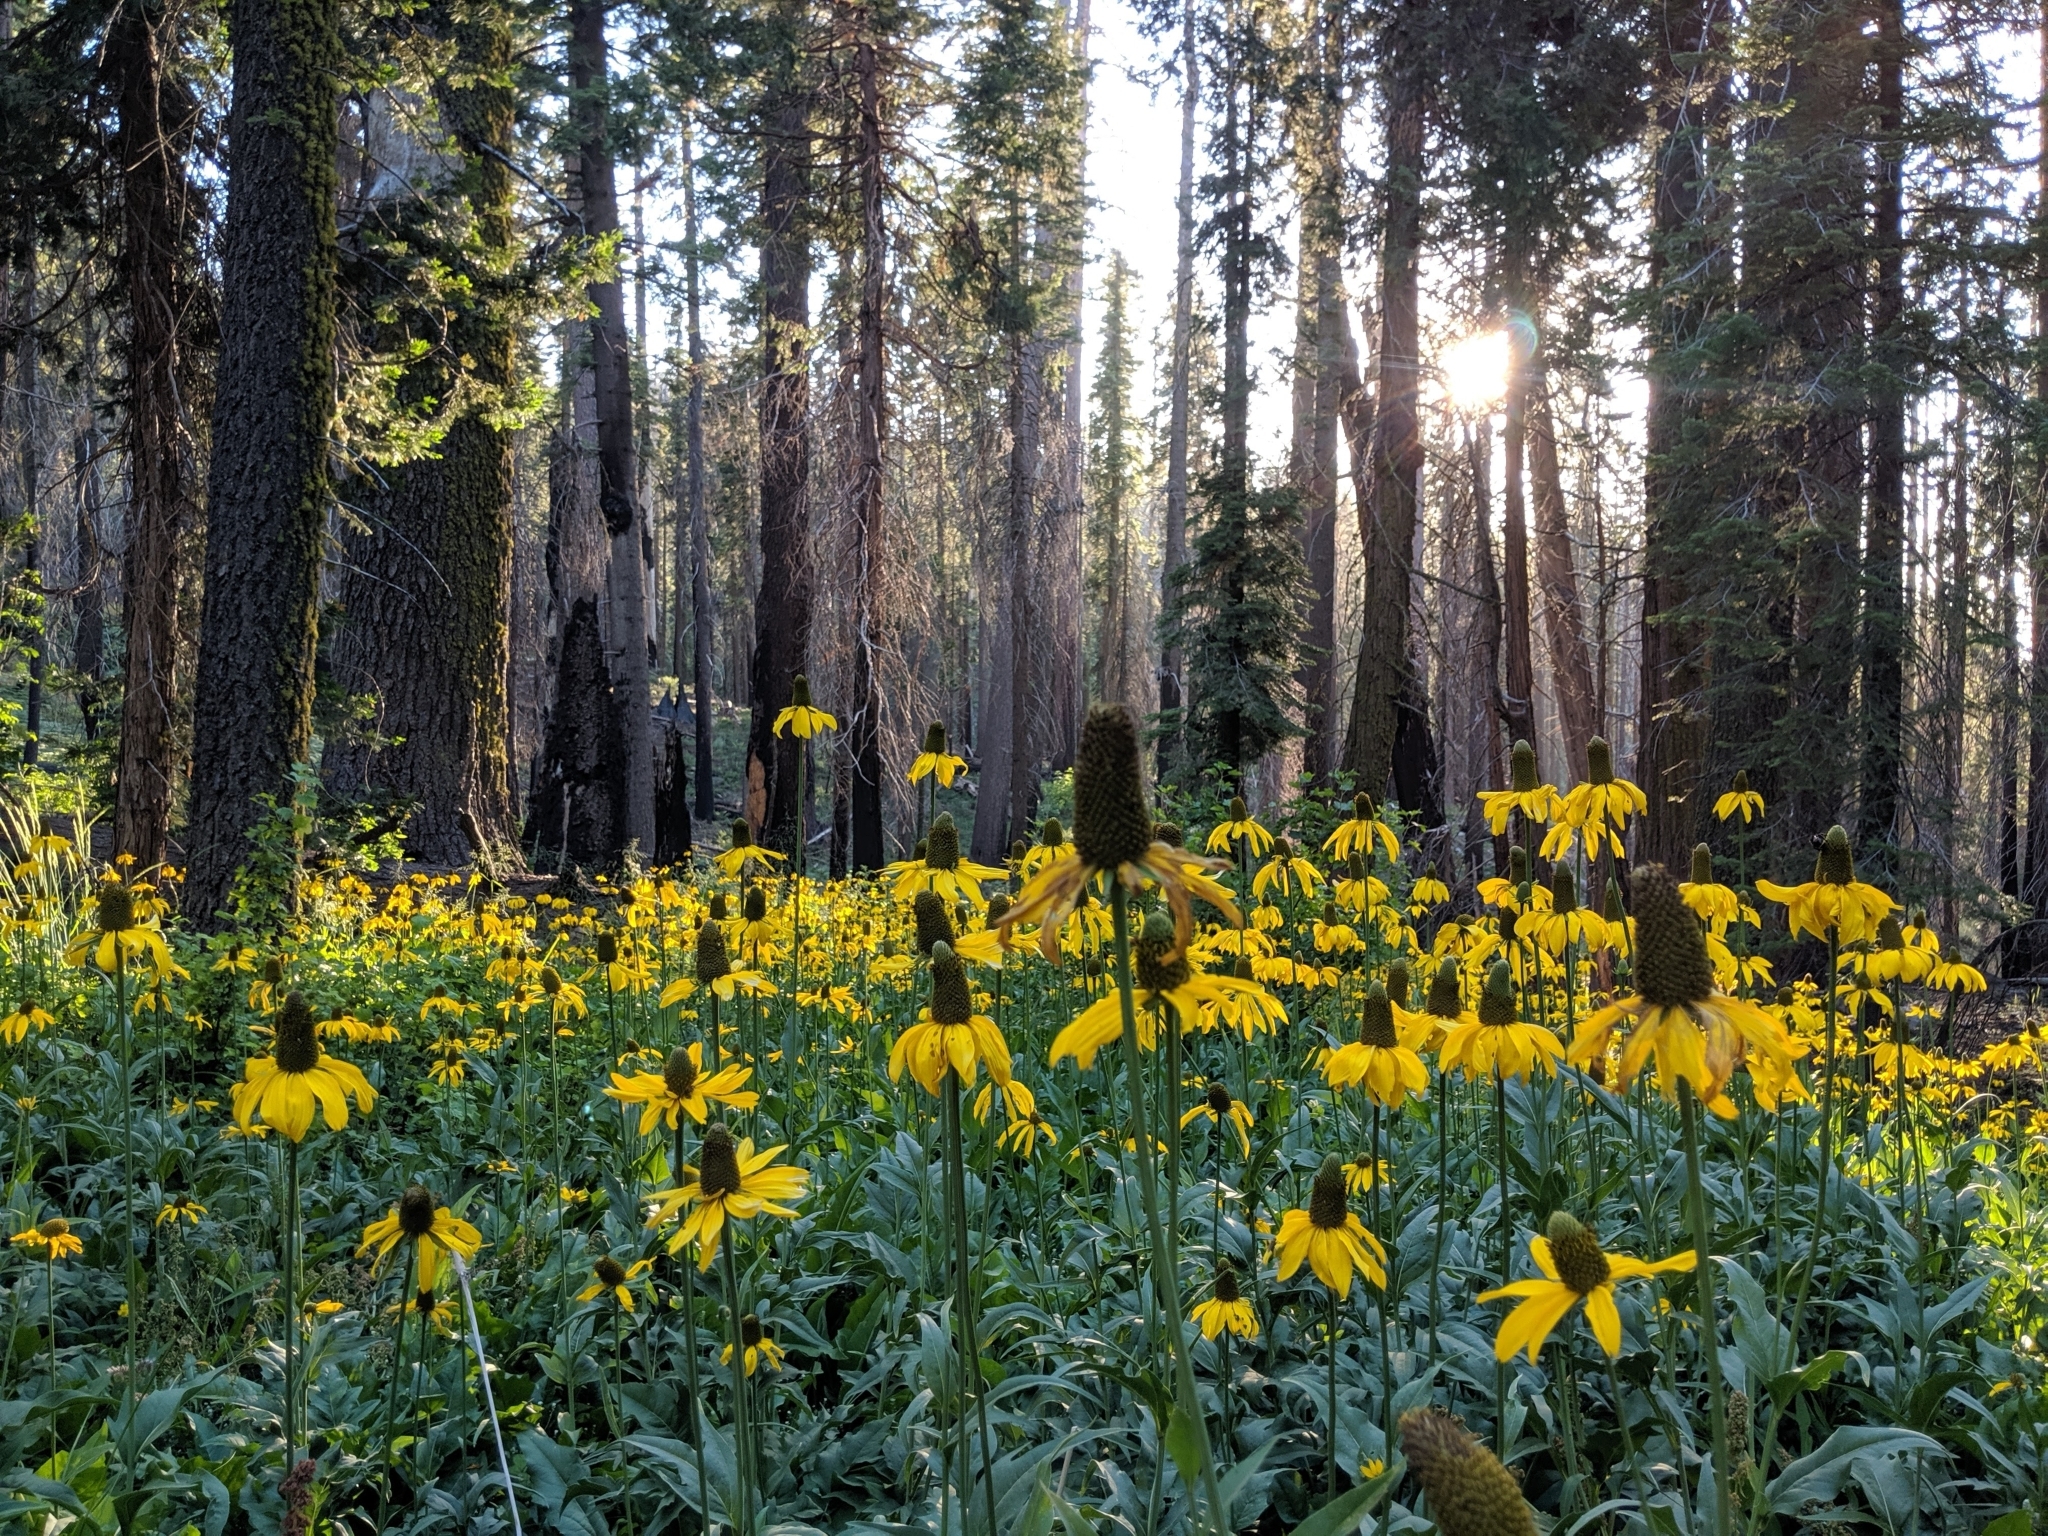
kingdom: Plantae
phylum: Tracheophyta
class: Magnoliopsida
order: Asterales
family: Asteraceae
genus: Rudbeckia
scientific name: Rudbeckia californica
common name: California coneflower
